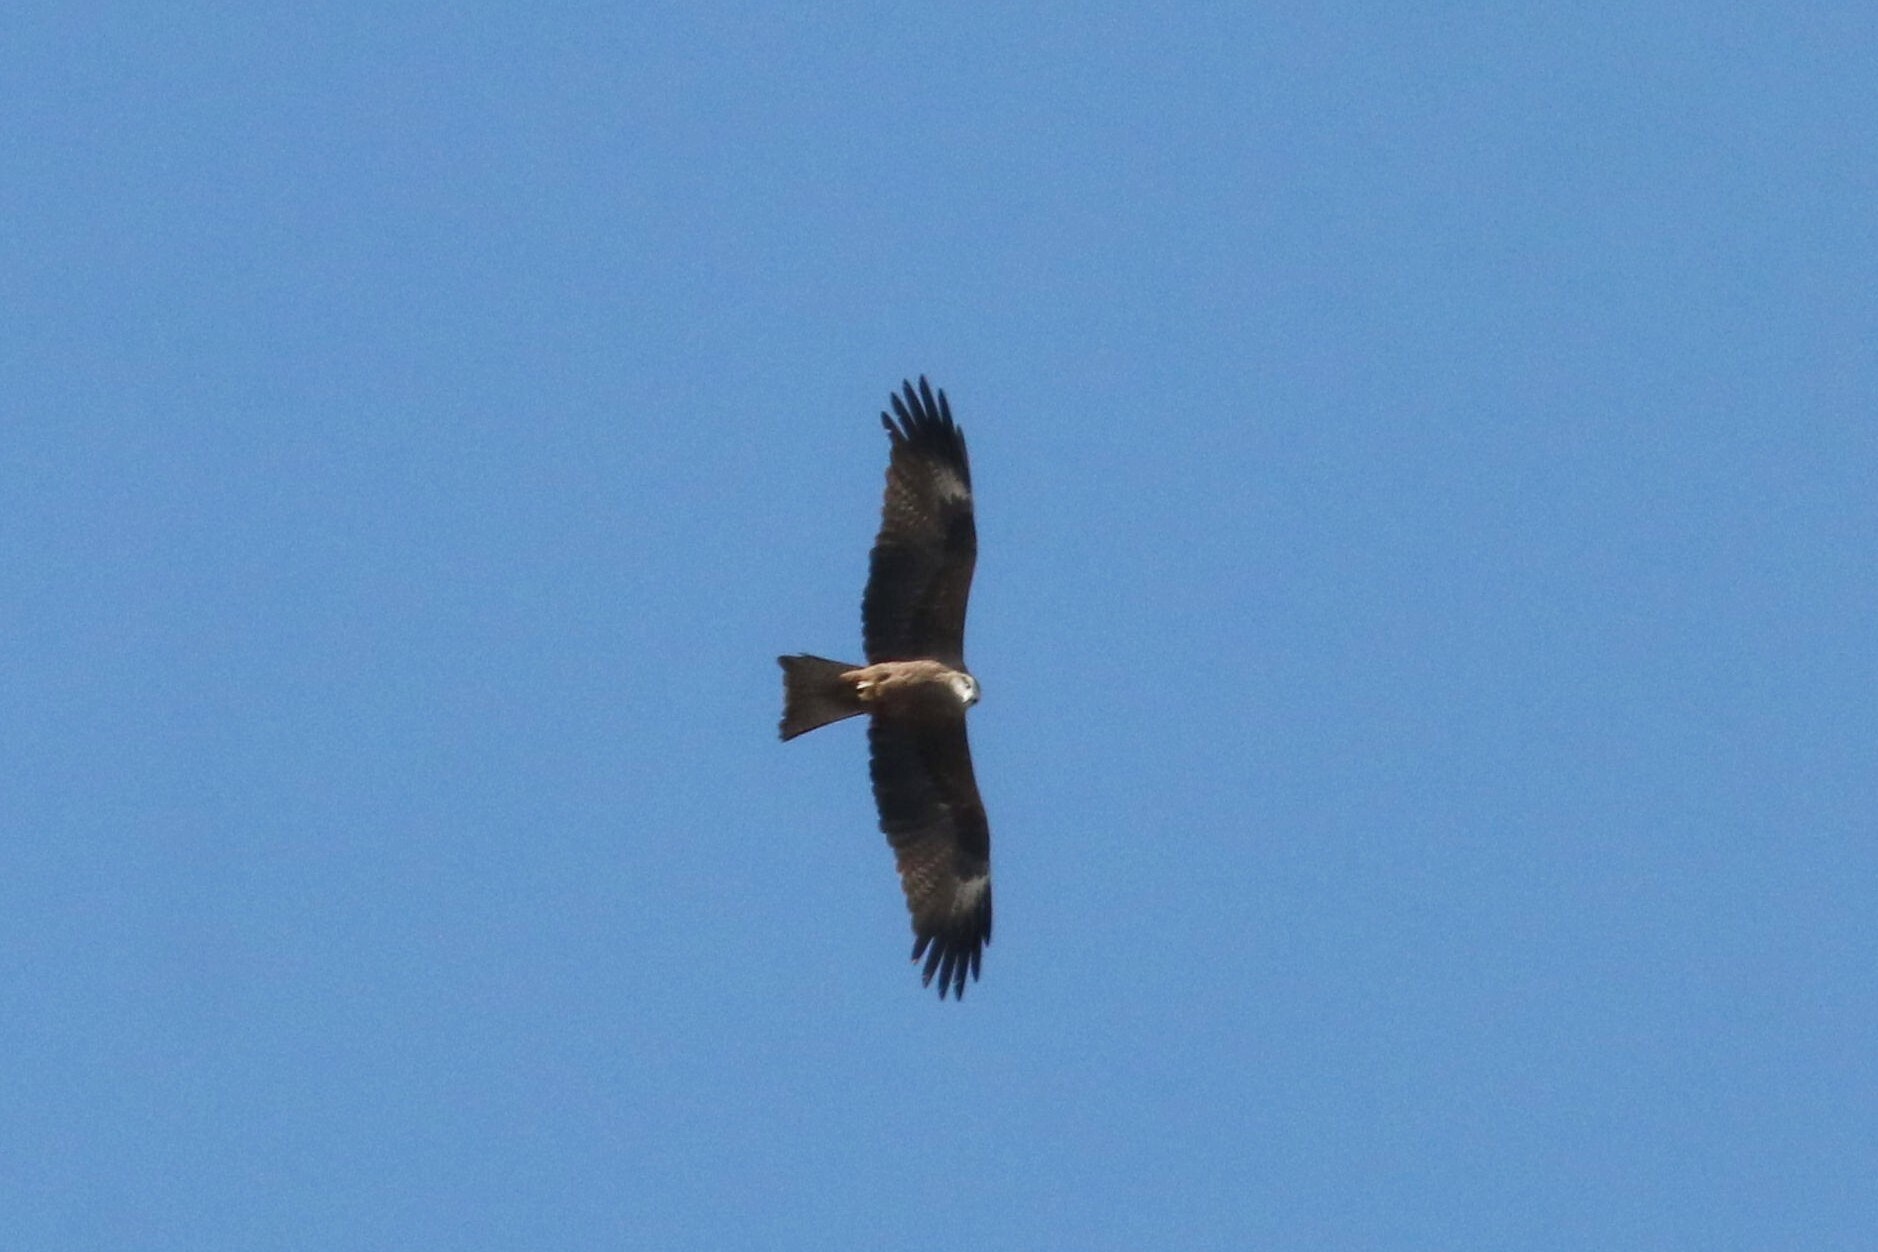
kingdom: Animalia
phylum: Chordata
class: Aves
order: Accipitriformes
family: Accipitridae
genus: Milvus
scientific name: Milvus migrans
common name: Black kite
